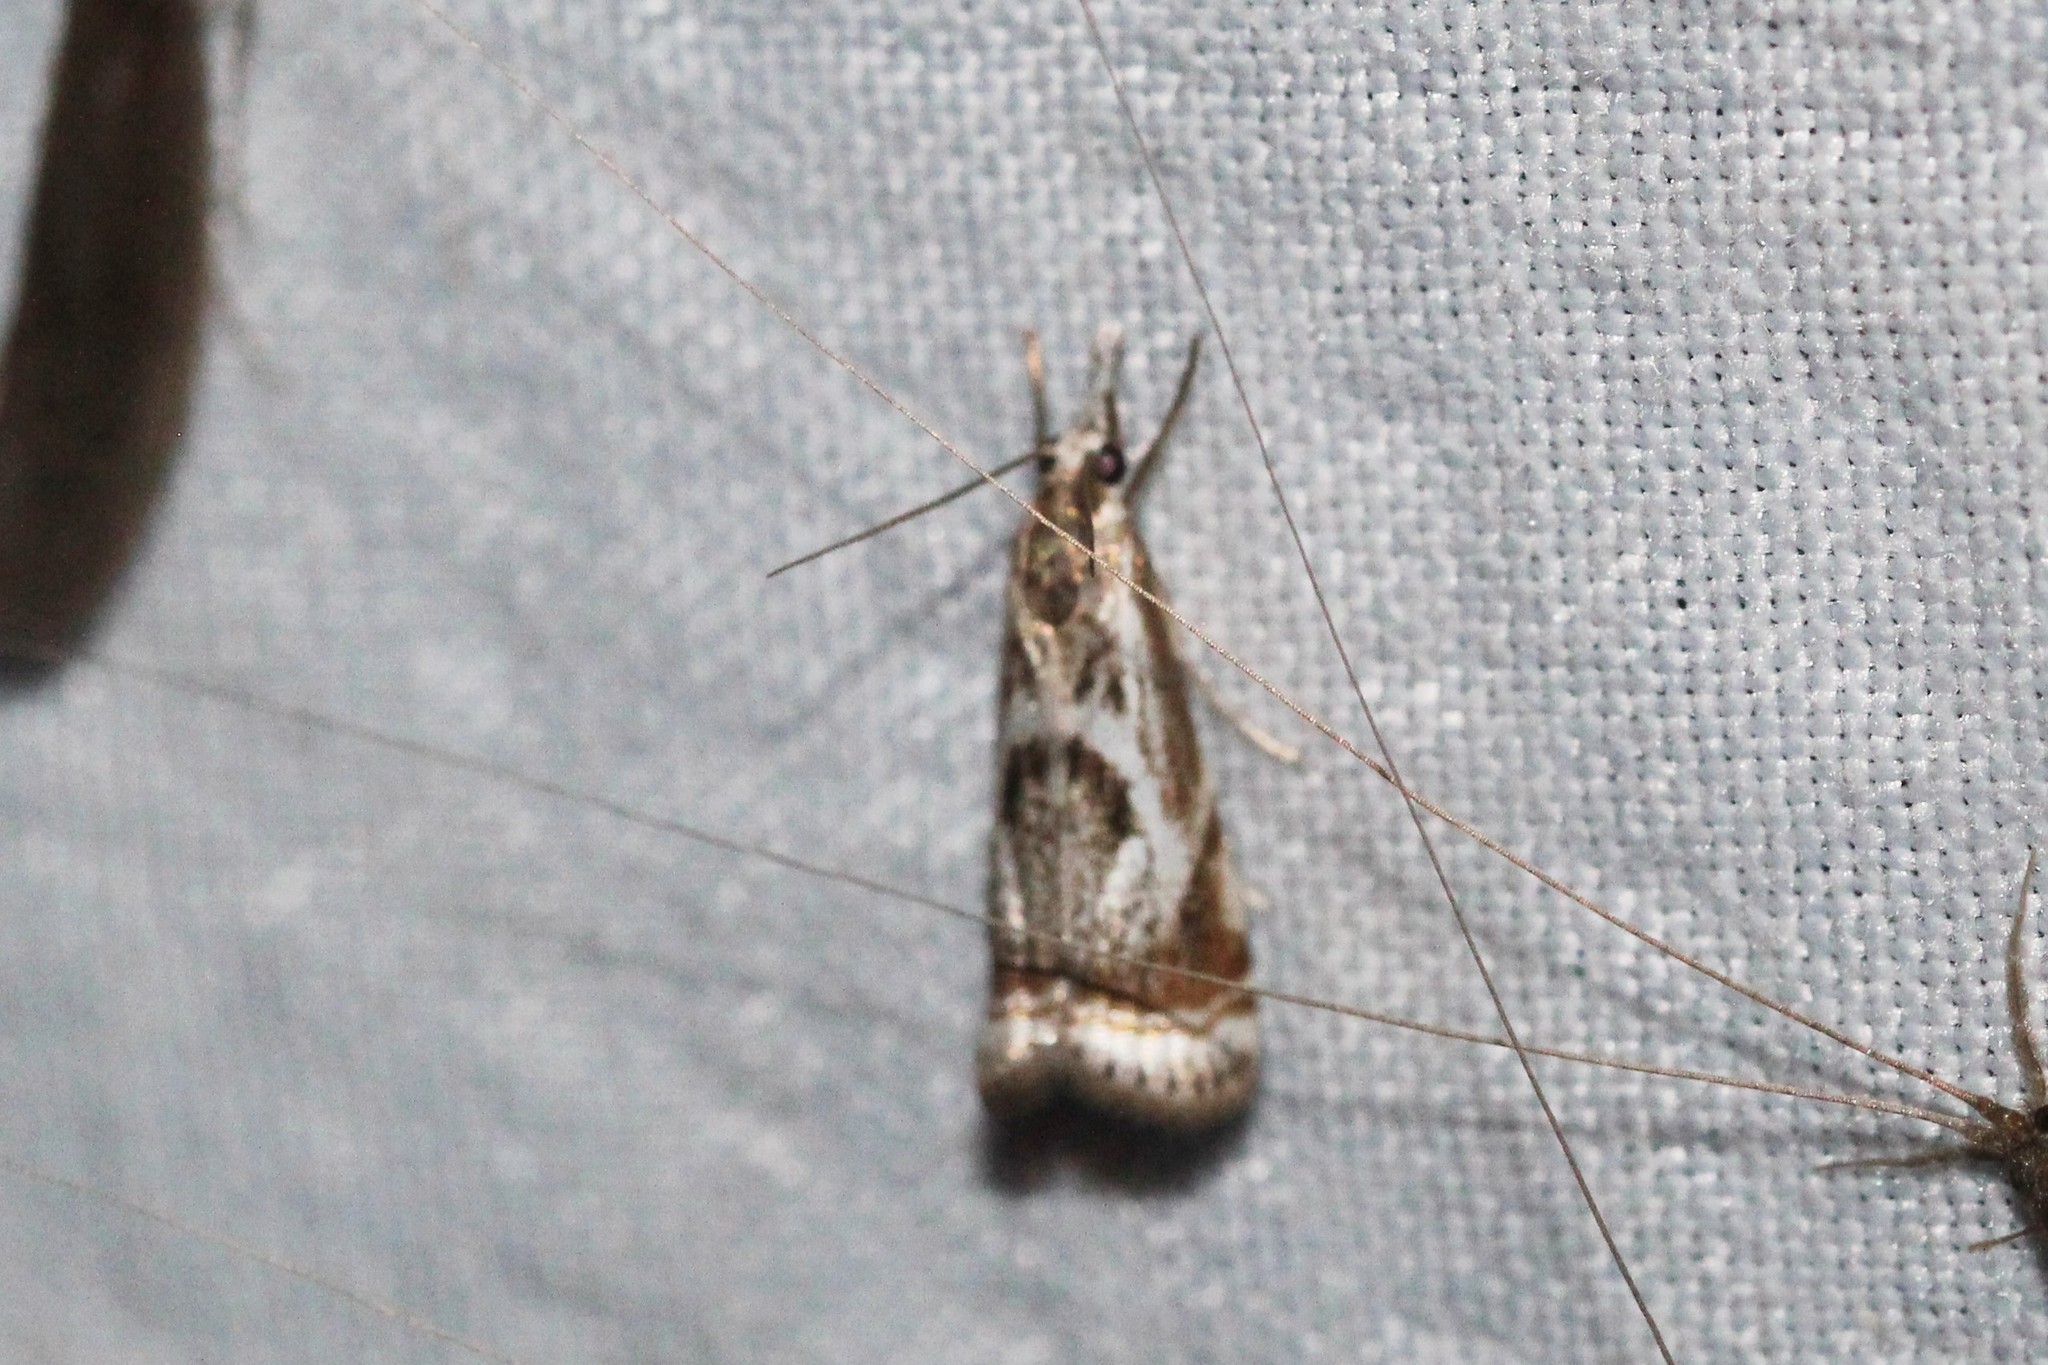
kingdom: Animalia
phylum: Arthropoda
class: Insecta
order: Lepidoptera
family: Crambidae
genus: Microcrambus
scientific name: Microcrambus elegans
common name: Elegant grass-veneer
